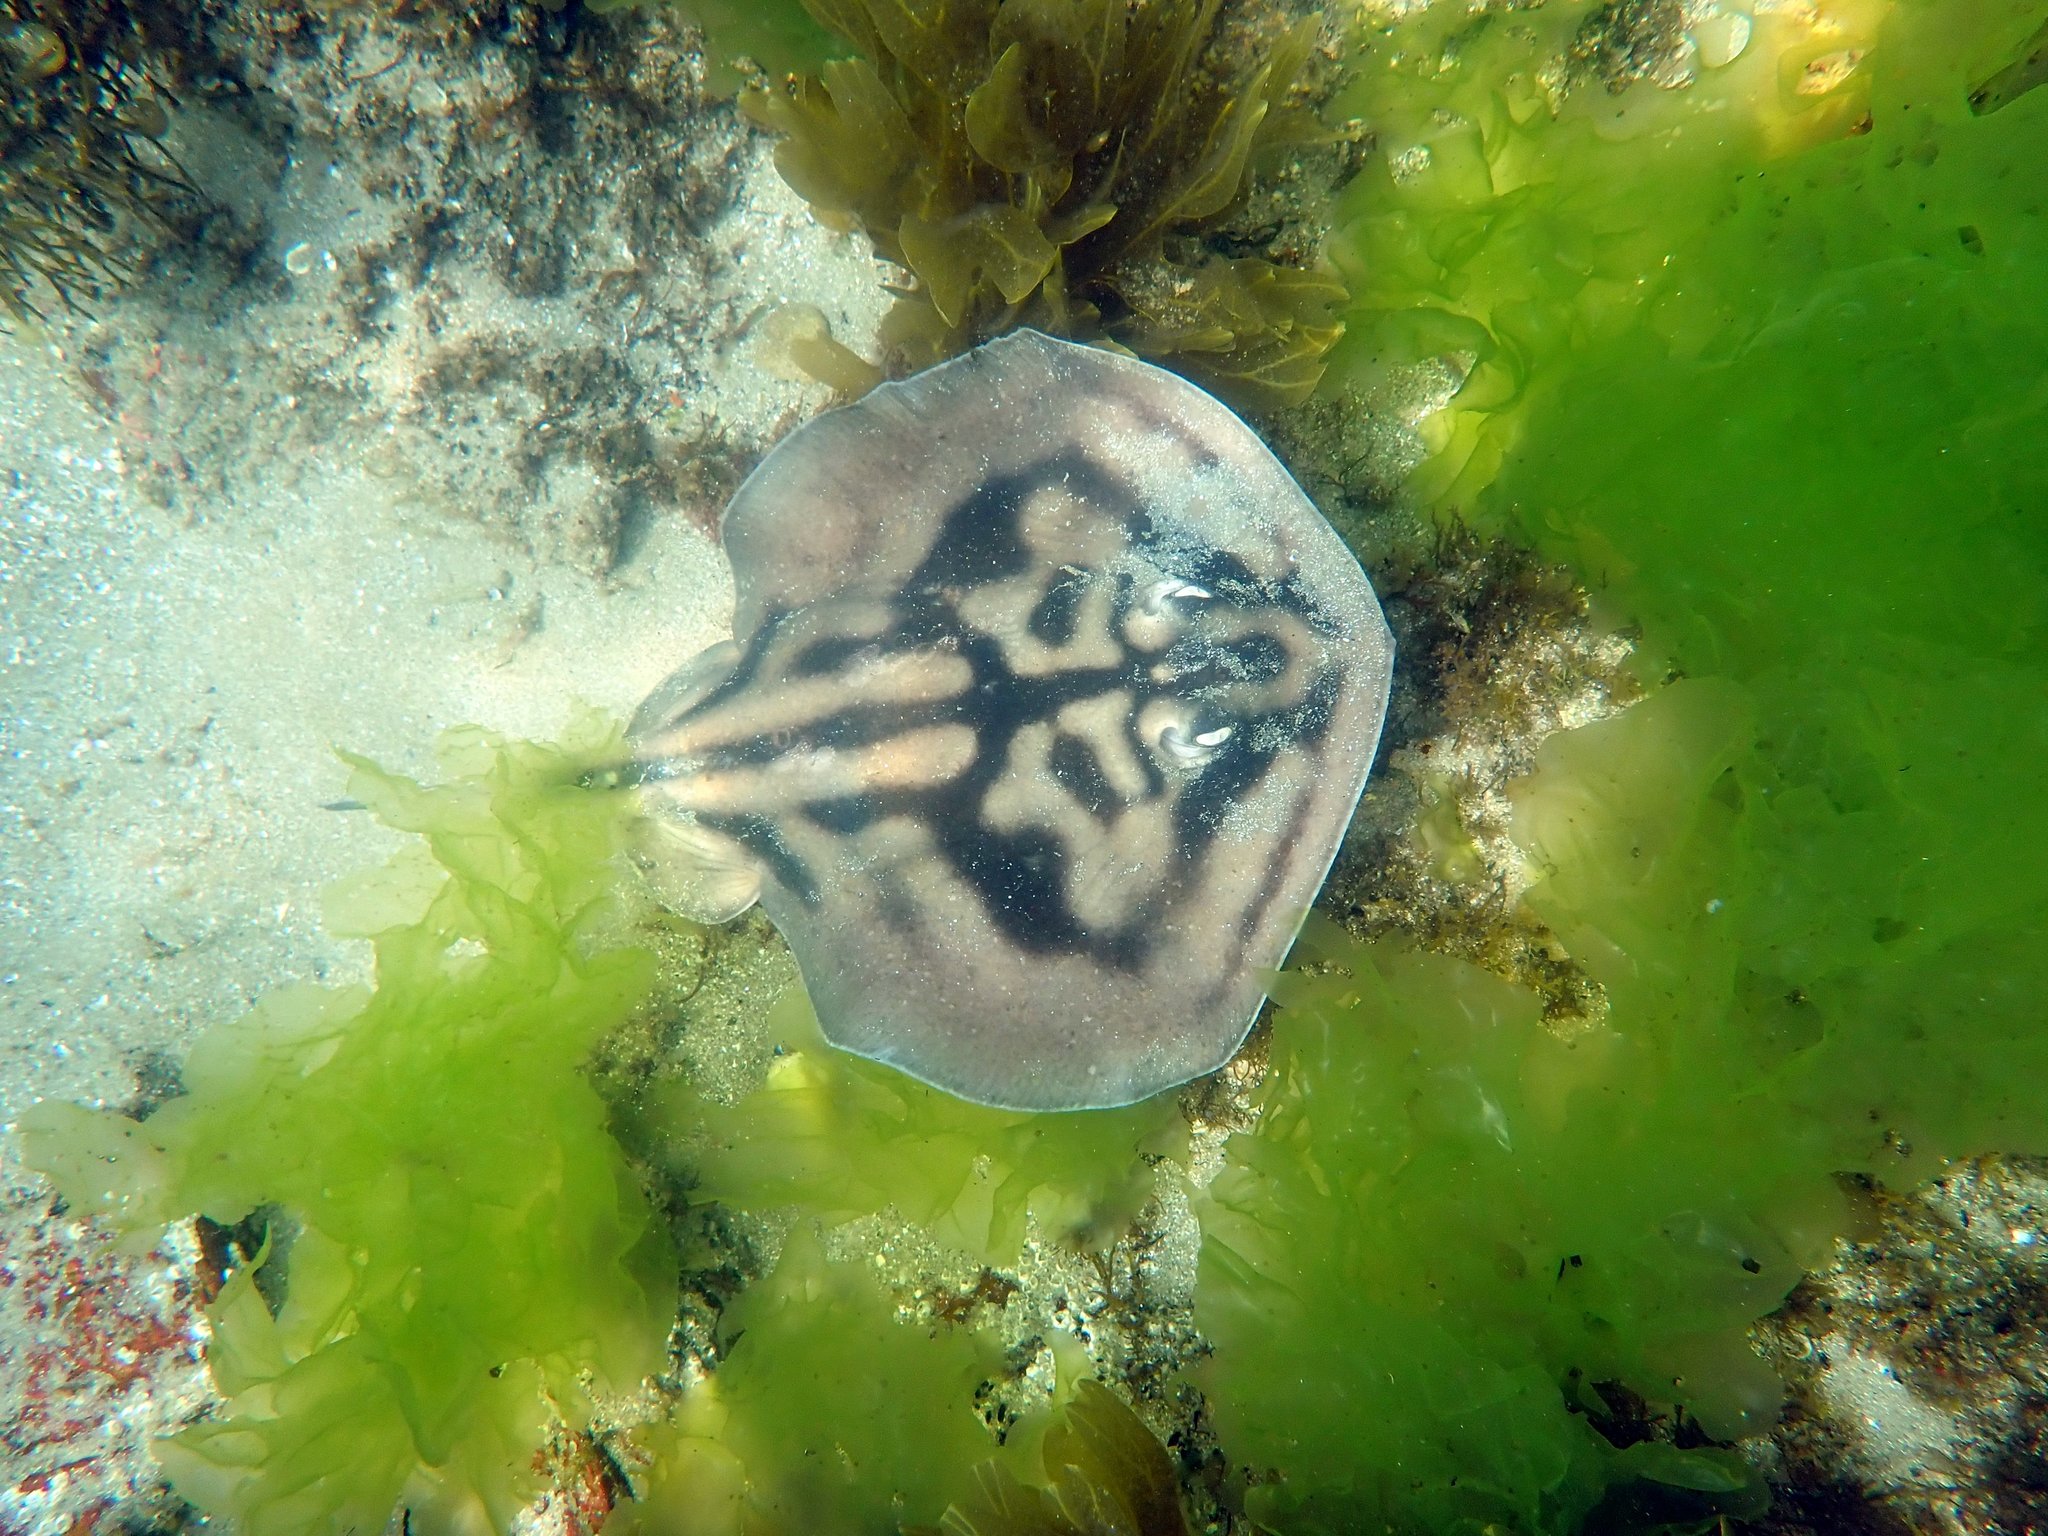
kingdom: Animalia
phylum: Chordata
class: Elasmobranchii
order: Myliobatiformes
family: Urolophidae
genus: Urolophus
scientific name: Urolophus cruciatus
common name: Banded stingaree
